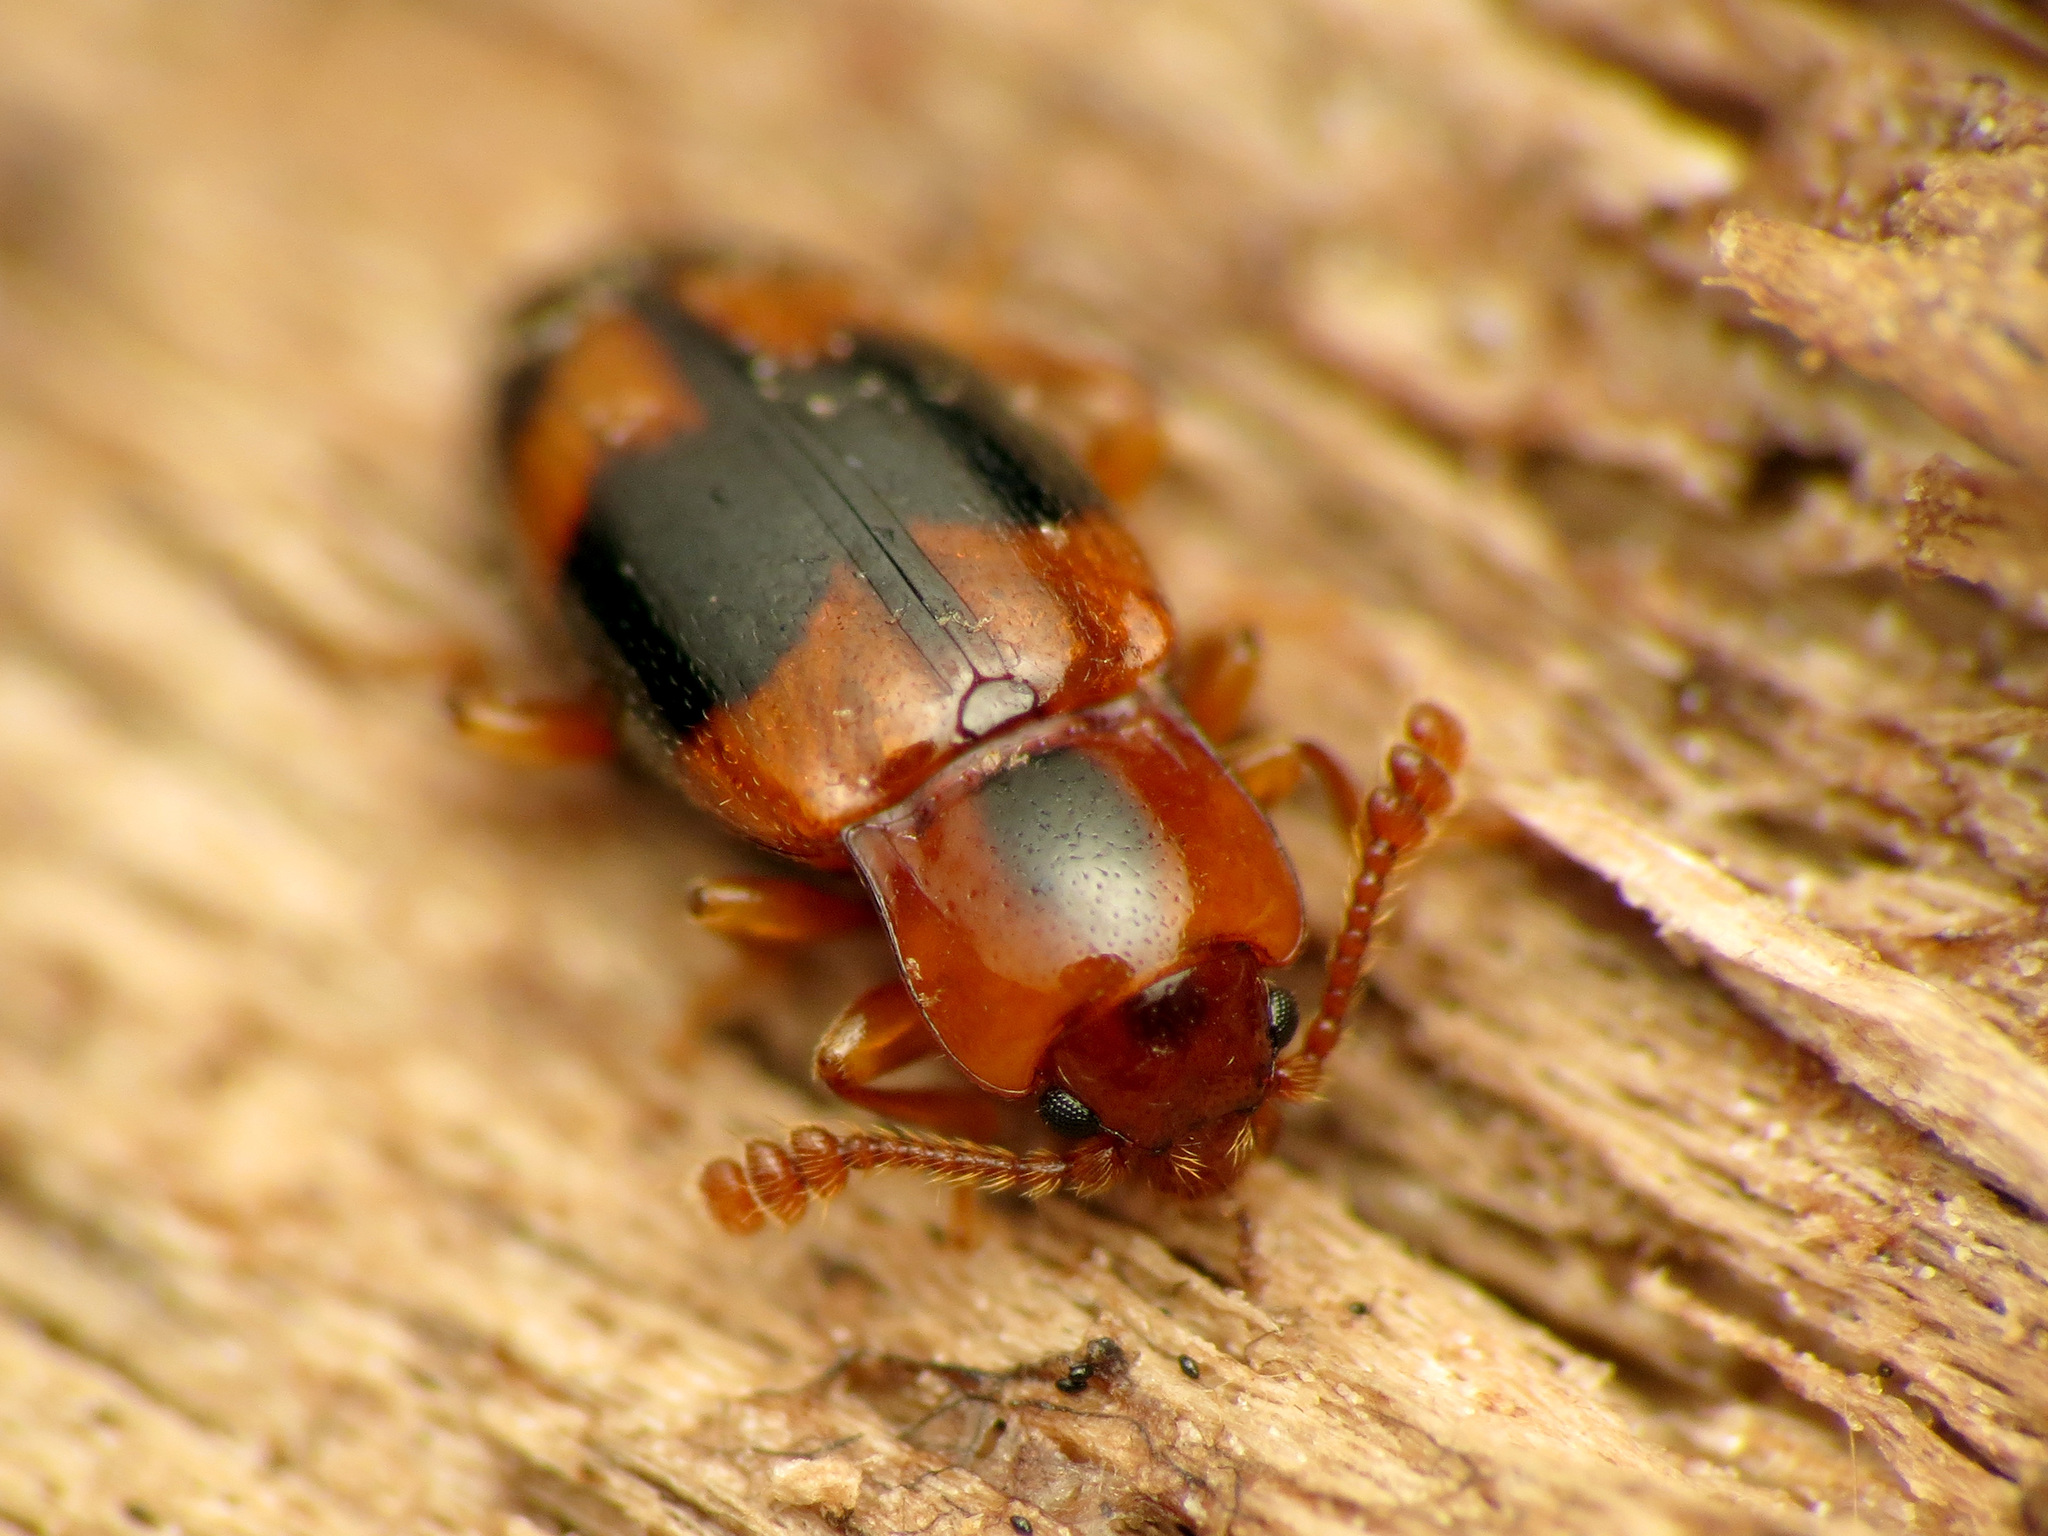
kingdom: Animalia
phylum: Arthropoda
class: Insecta
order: Coleoptera
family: Endomychidae
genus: Phymaphora
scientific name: Phymaphora pulchella
